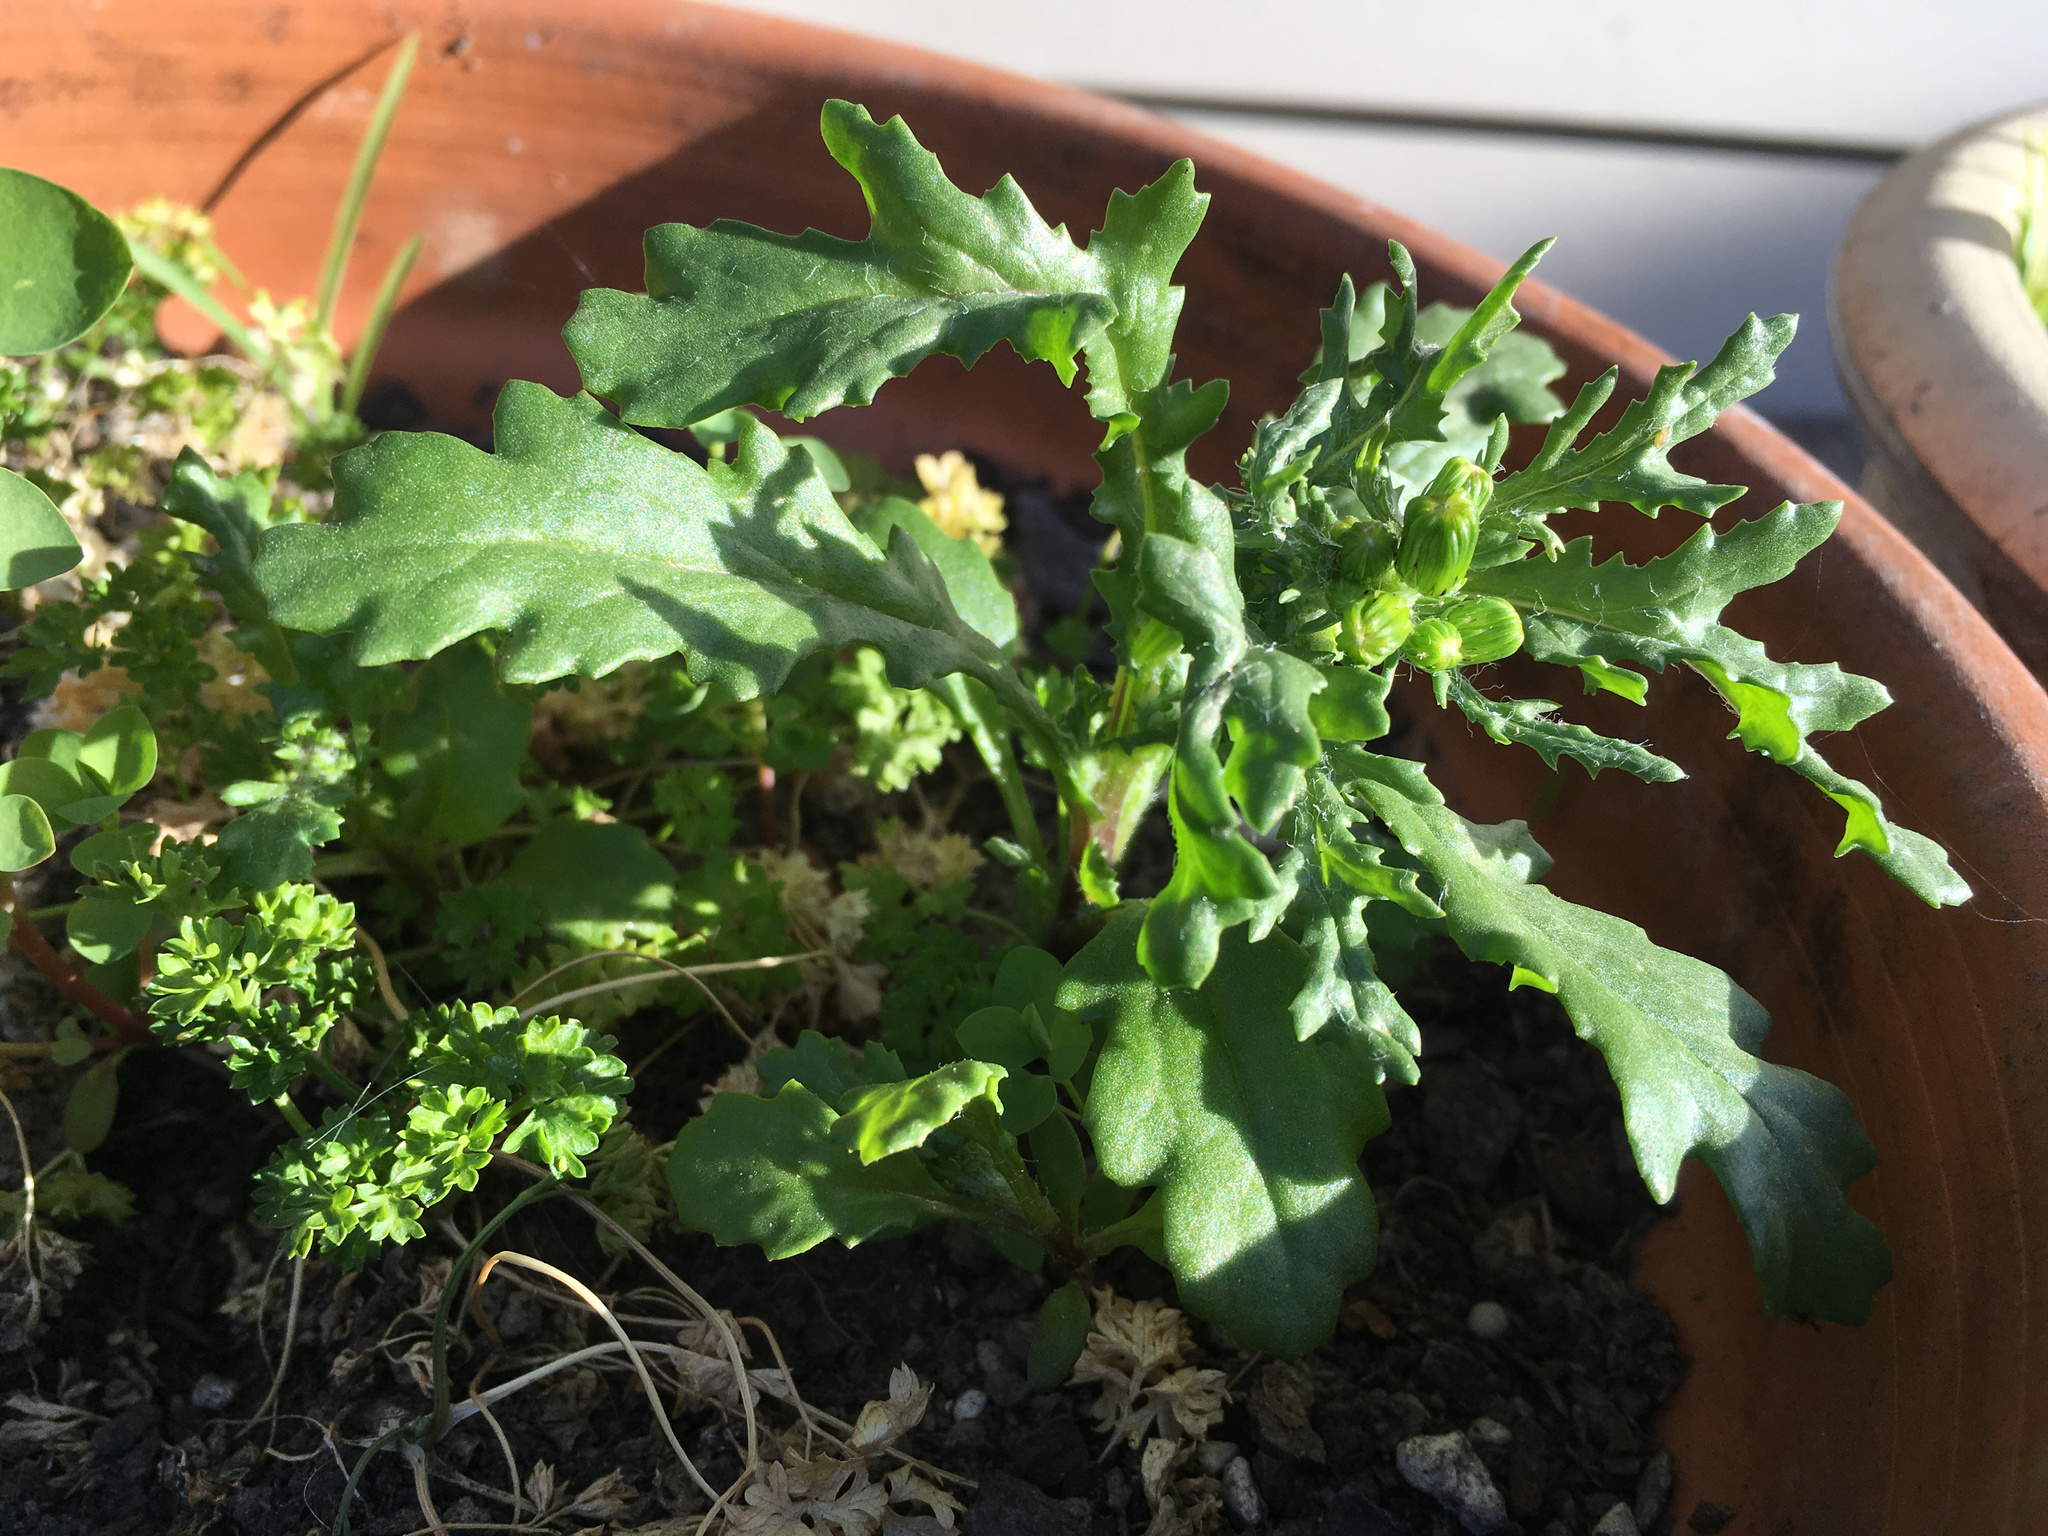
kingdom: Plantae
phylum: Tracheophyta
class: Magnoliopsida
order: Asterales
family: Asteraceae
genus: Senecio
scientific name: Senecio vulgaris
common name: Old-man-in-the-spring
